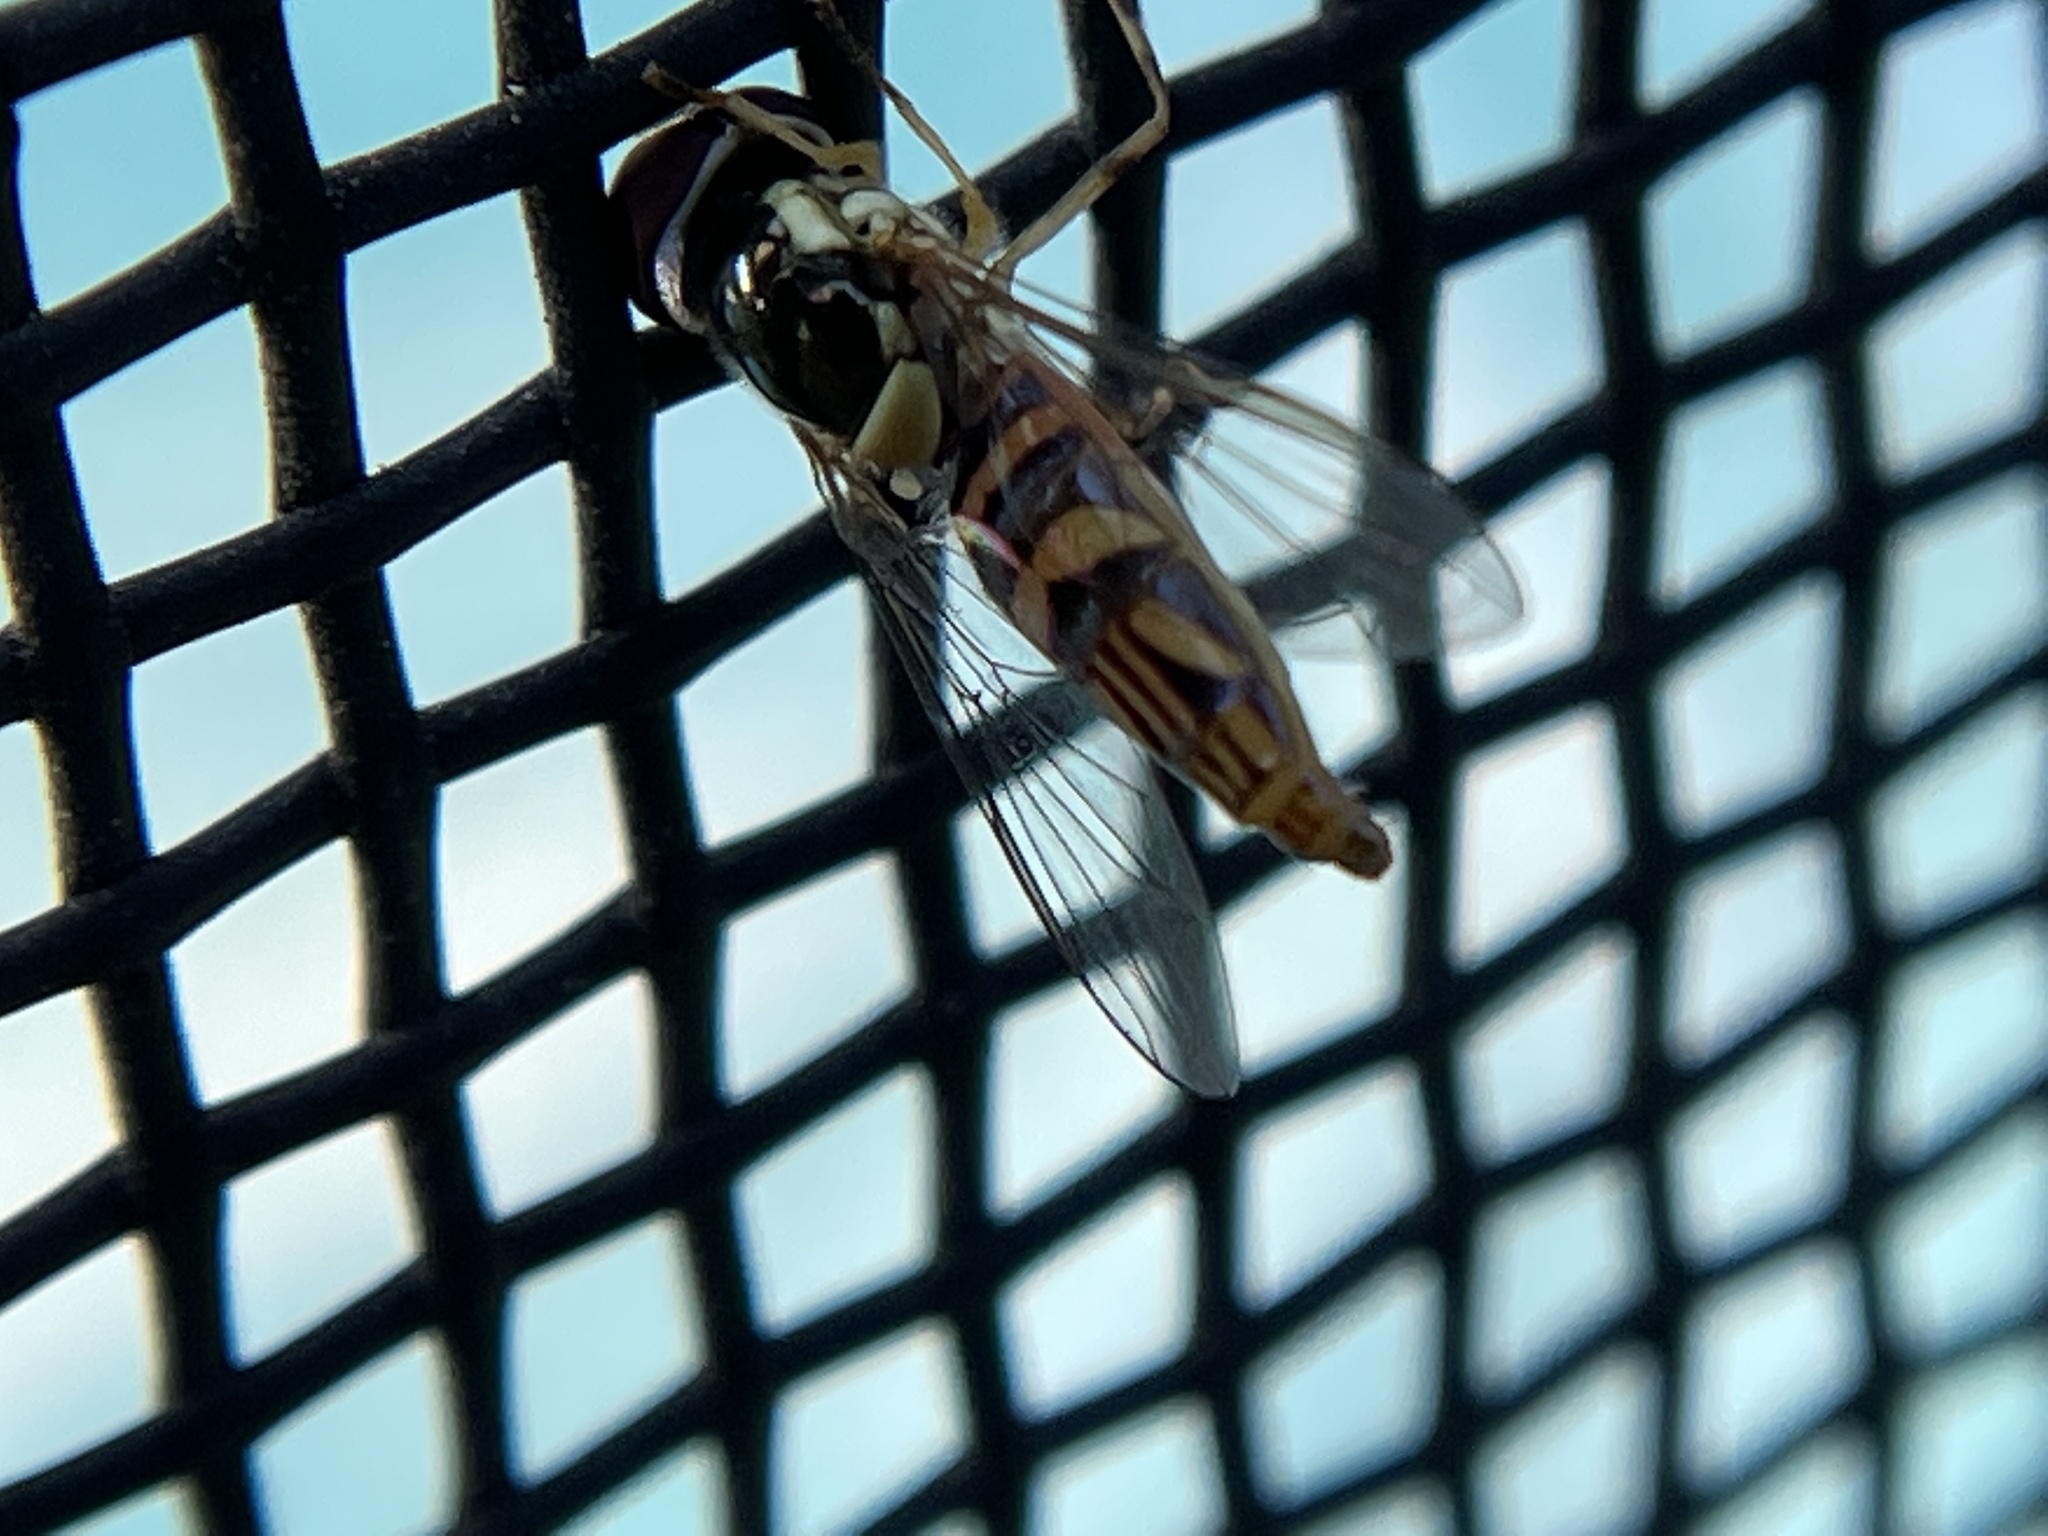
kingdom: Animalia
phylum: Arthropoda
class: Insecta
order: Diptera
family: Syrphidae
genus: Allograpta
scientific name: Allograpta obliqua
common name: Common oblique syrphid
